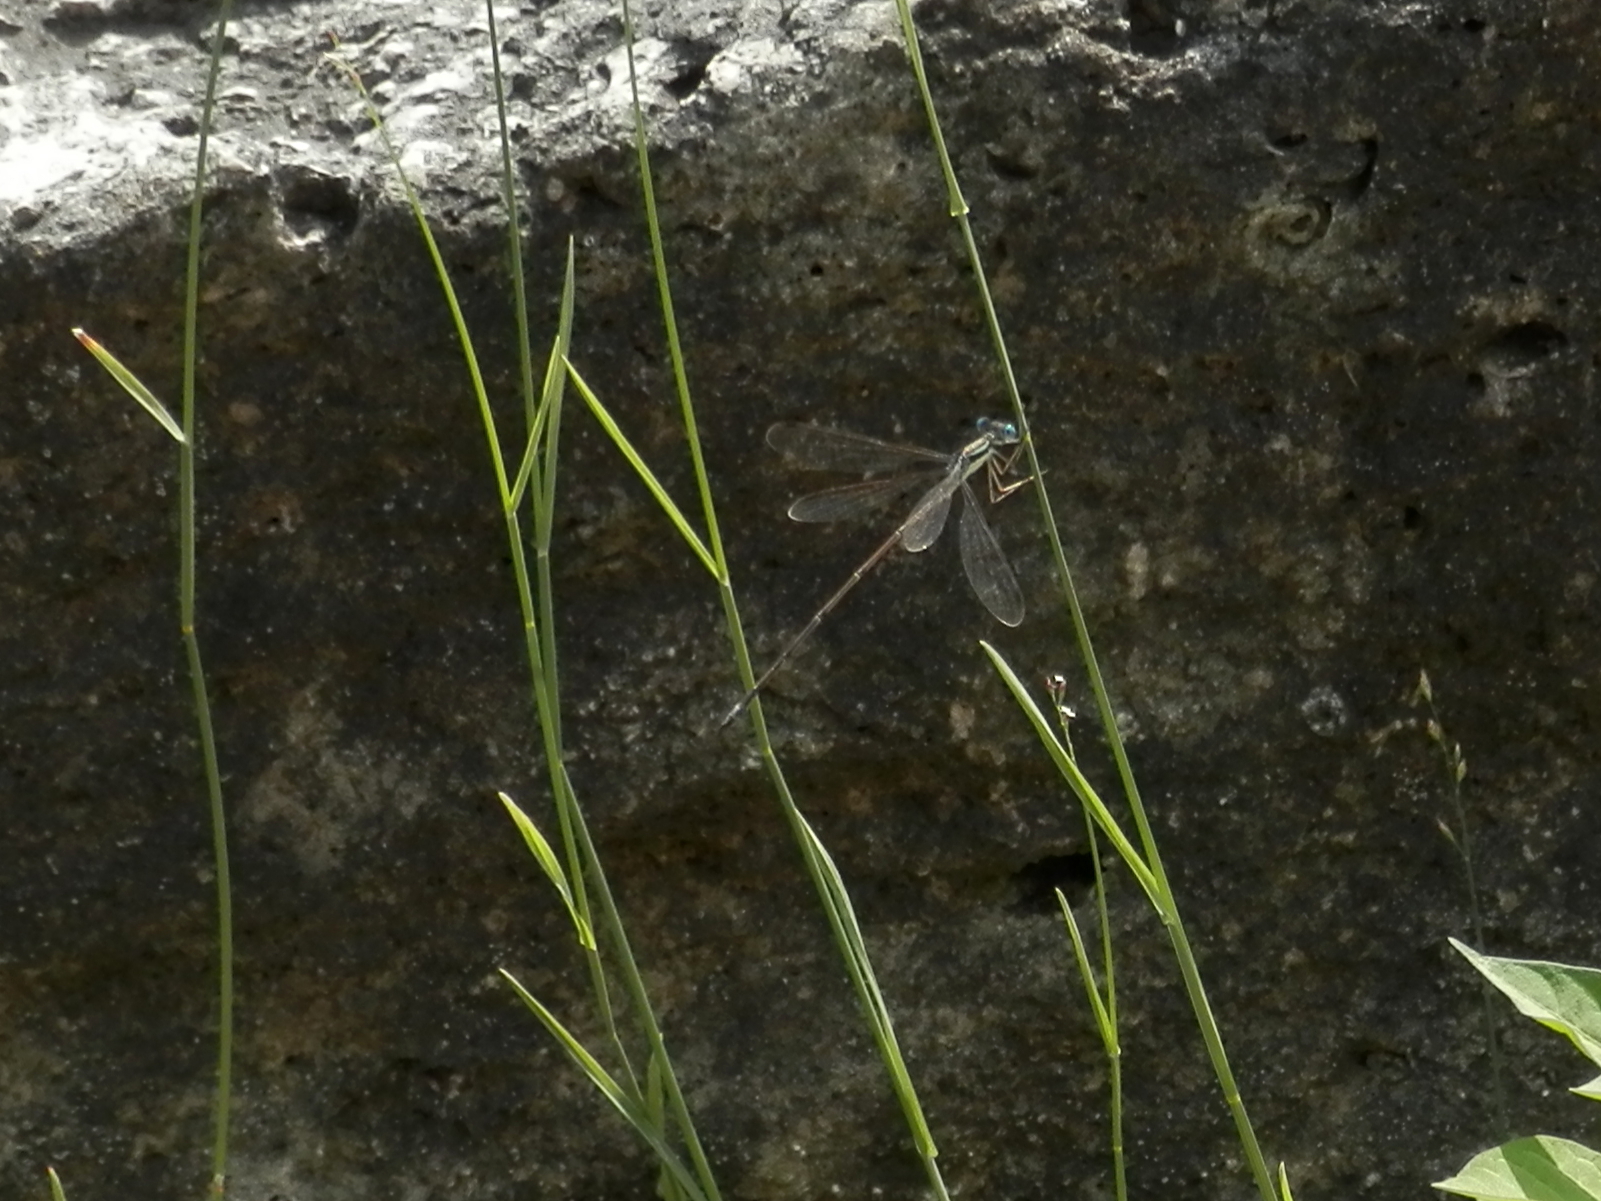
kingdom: Animalia
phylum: Arthropoda
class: Insecta
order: Odonata
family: Lestidae
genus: Lestes
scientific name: Lestes rectangularis
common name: Slender spreadwing
